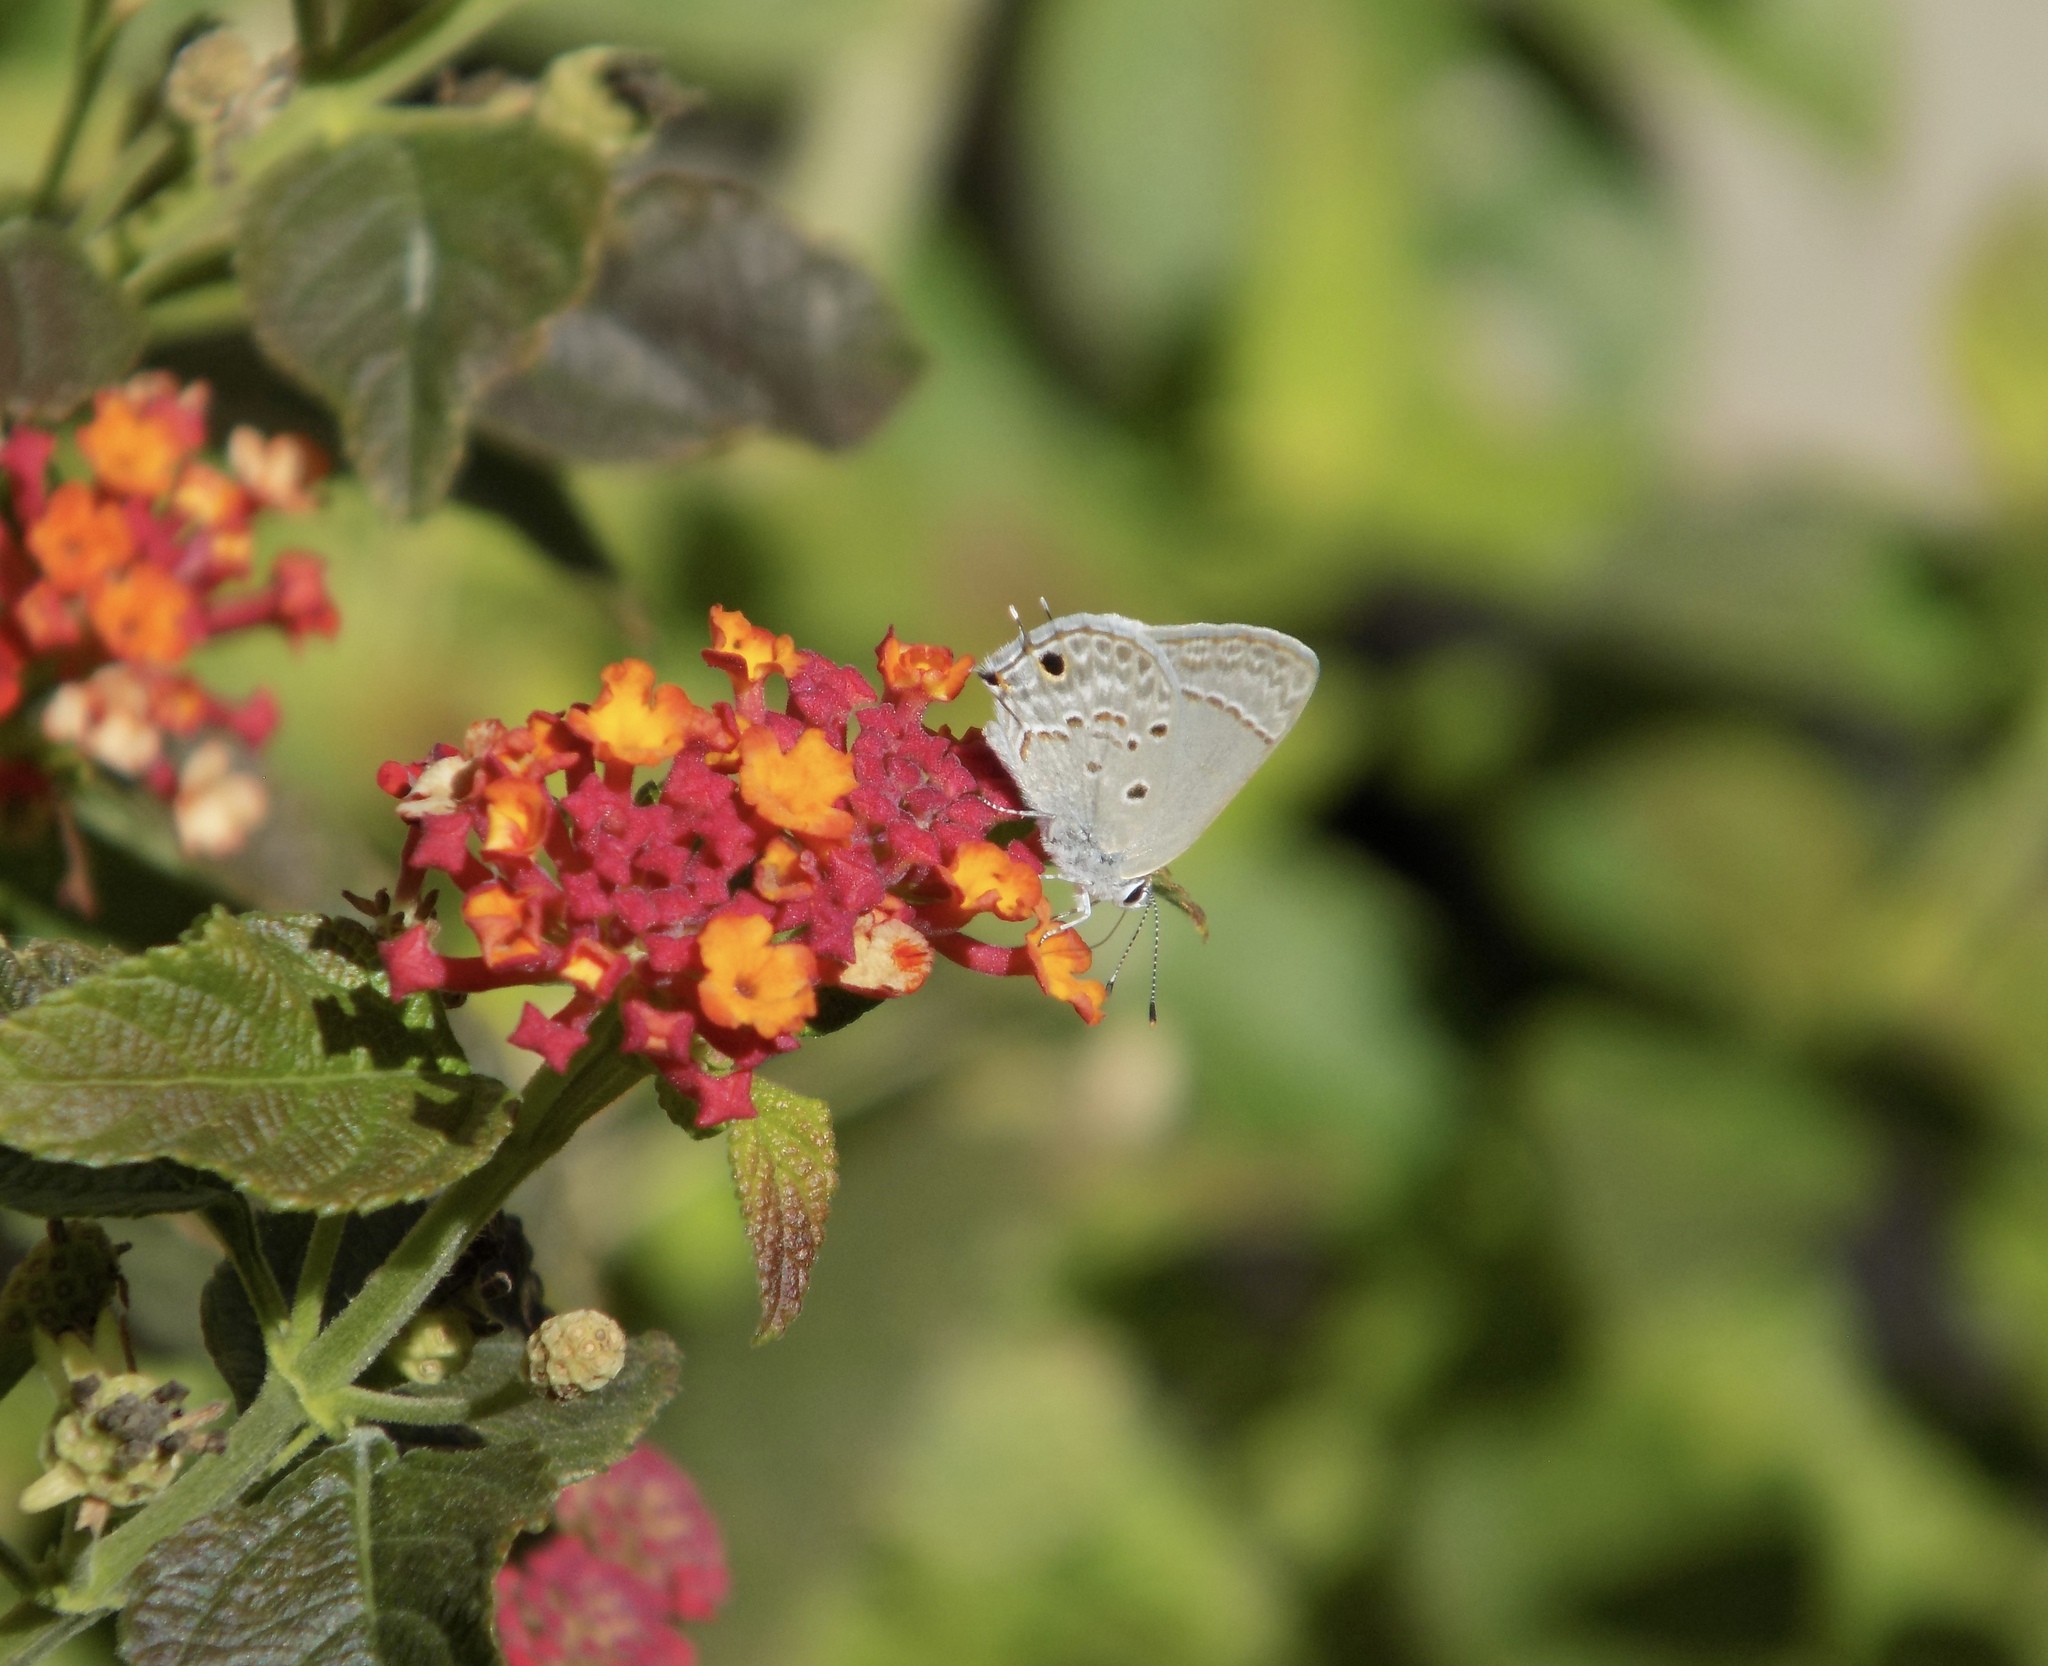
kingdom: Animalia
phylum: Arthropoda
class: Insecta
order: Lepidoptera
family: Lycaenidae
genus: Callicista
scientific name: Callicista columella
